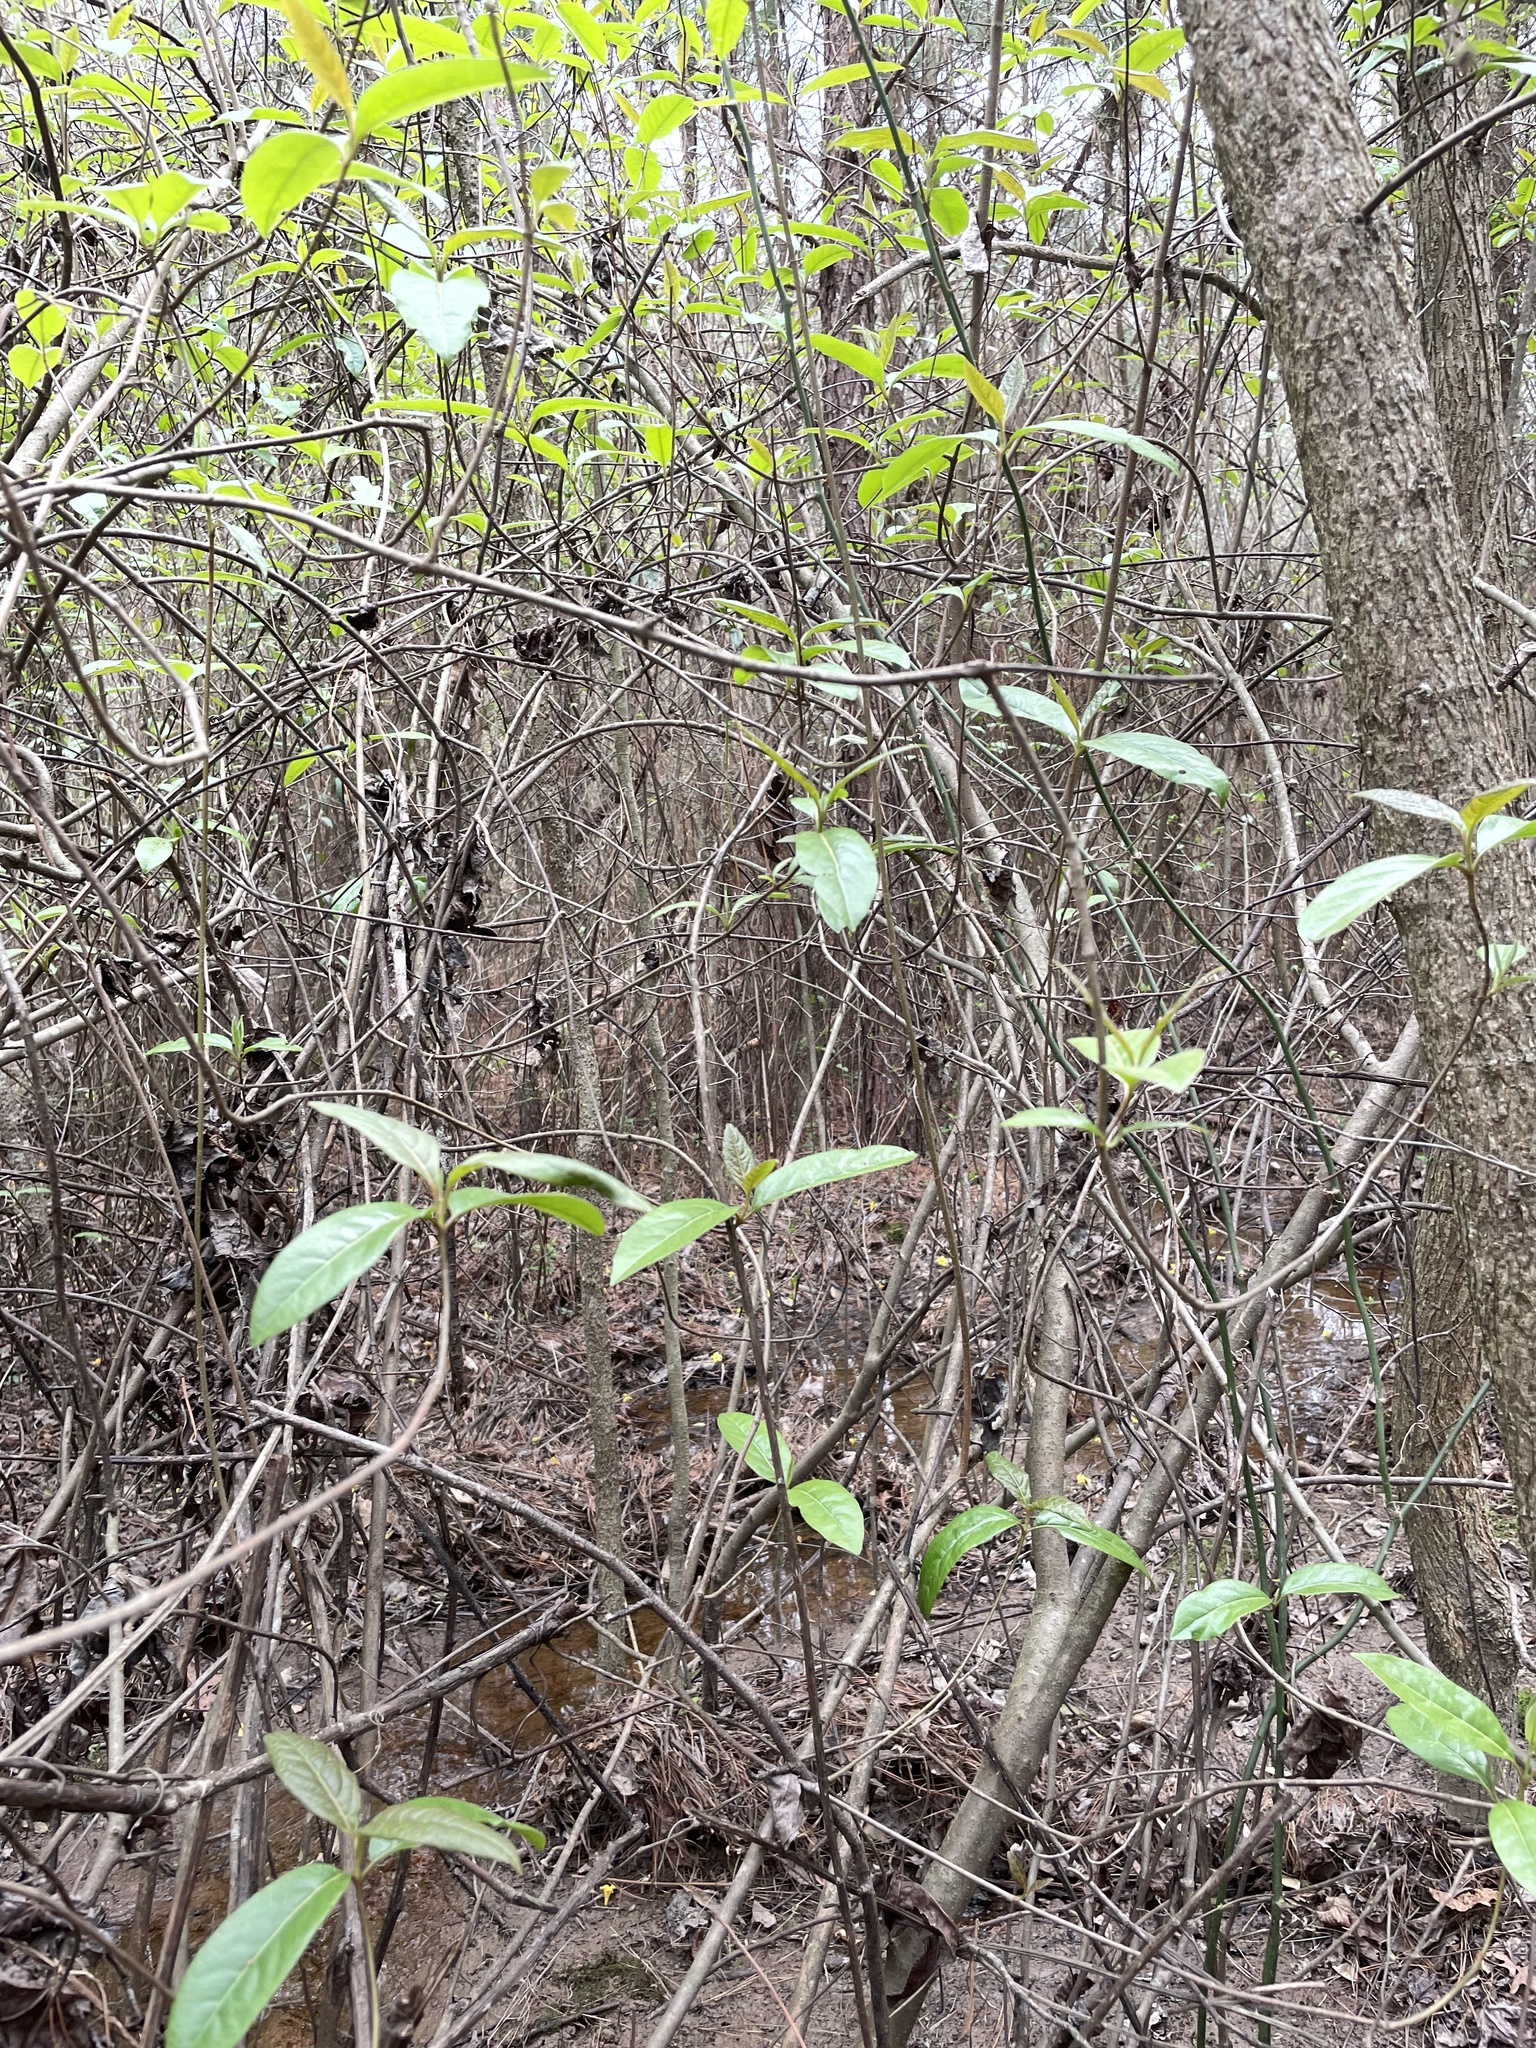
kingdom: Plantae
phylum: Tracheophyta
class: Magnoliopsida
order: Dipsacales
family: Viburnaceae
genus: Viburnum
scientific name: Viburnum nudum
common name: Possum haw
